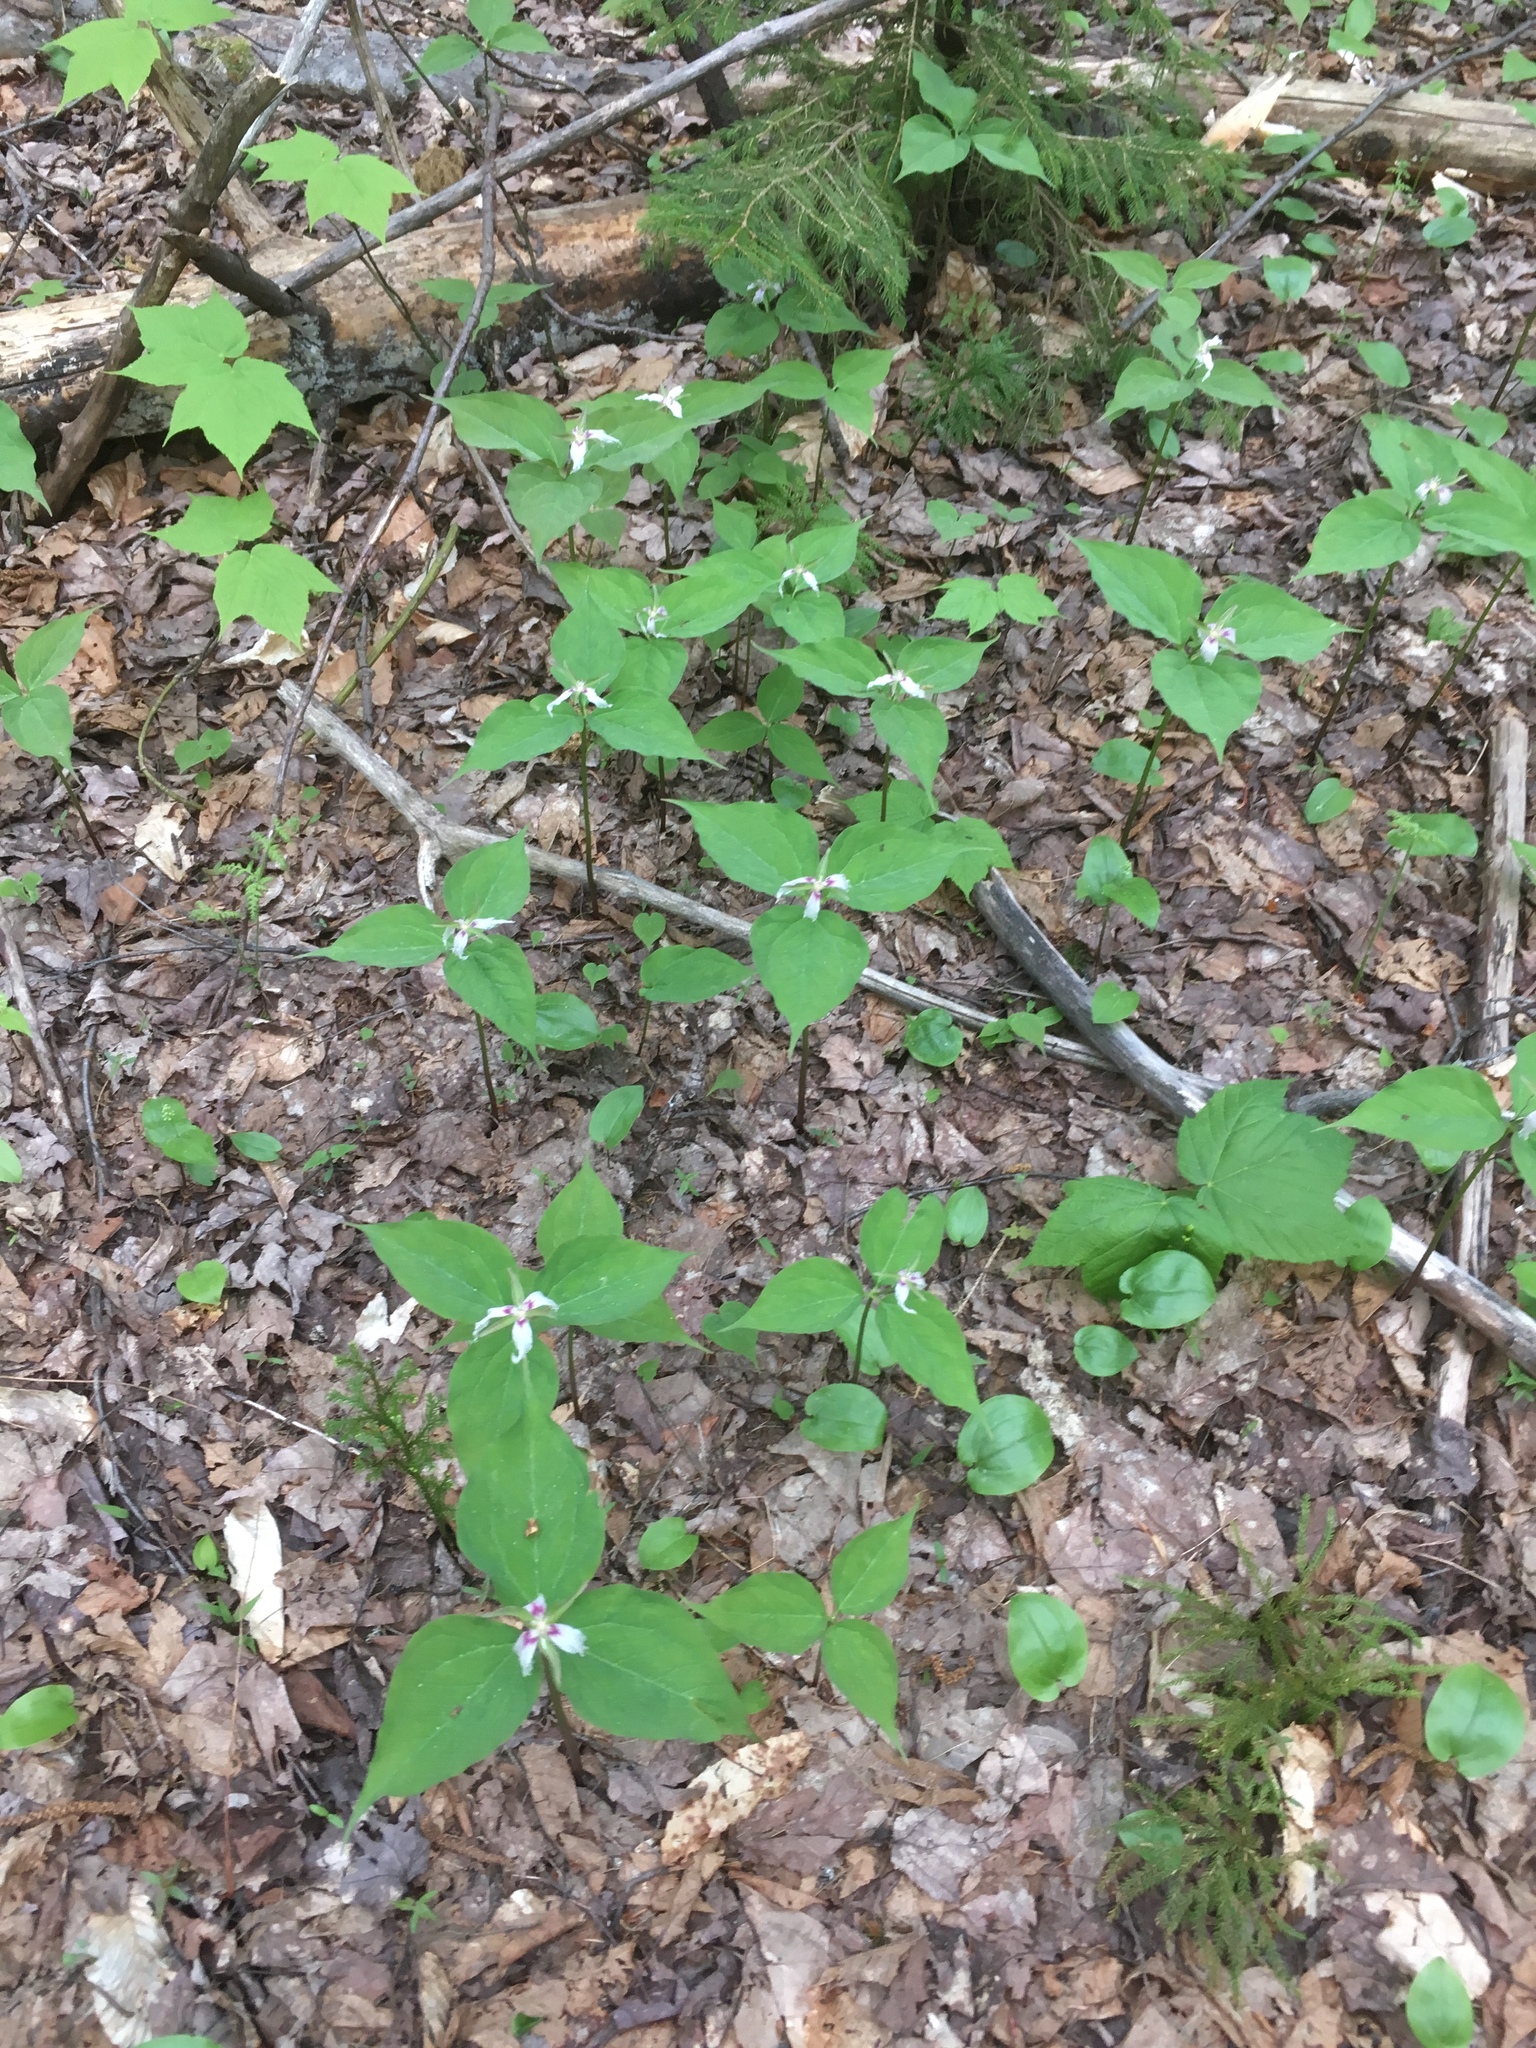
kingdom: Plantae
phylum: Tracheophyta
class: Liliopsida
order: Liliales
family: Melanthiaceae
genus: Trillium
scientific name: Trillium undulatum
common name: Paint trillium
